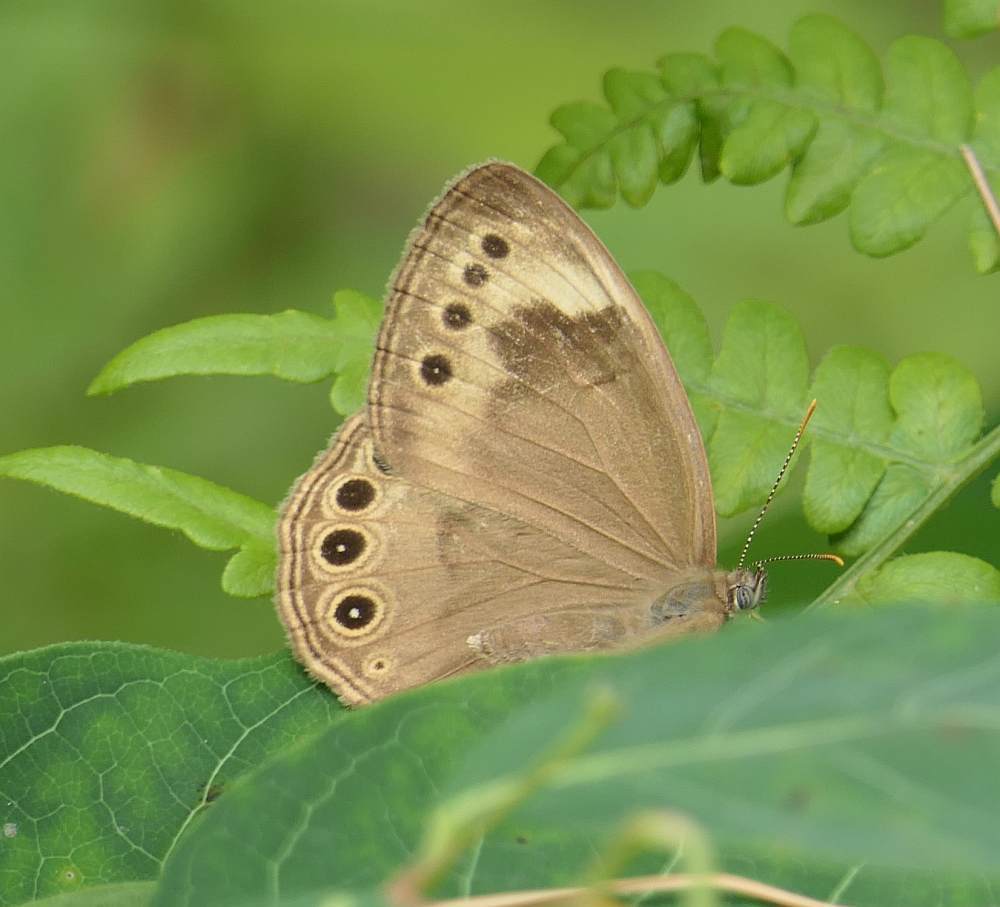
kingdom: Animalia
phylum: Arthropoda
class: Insecta
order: Lepidoptera
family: Nymphalidae
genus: Lethe
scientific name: Lethe eurydice
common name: Eyed brown
